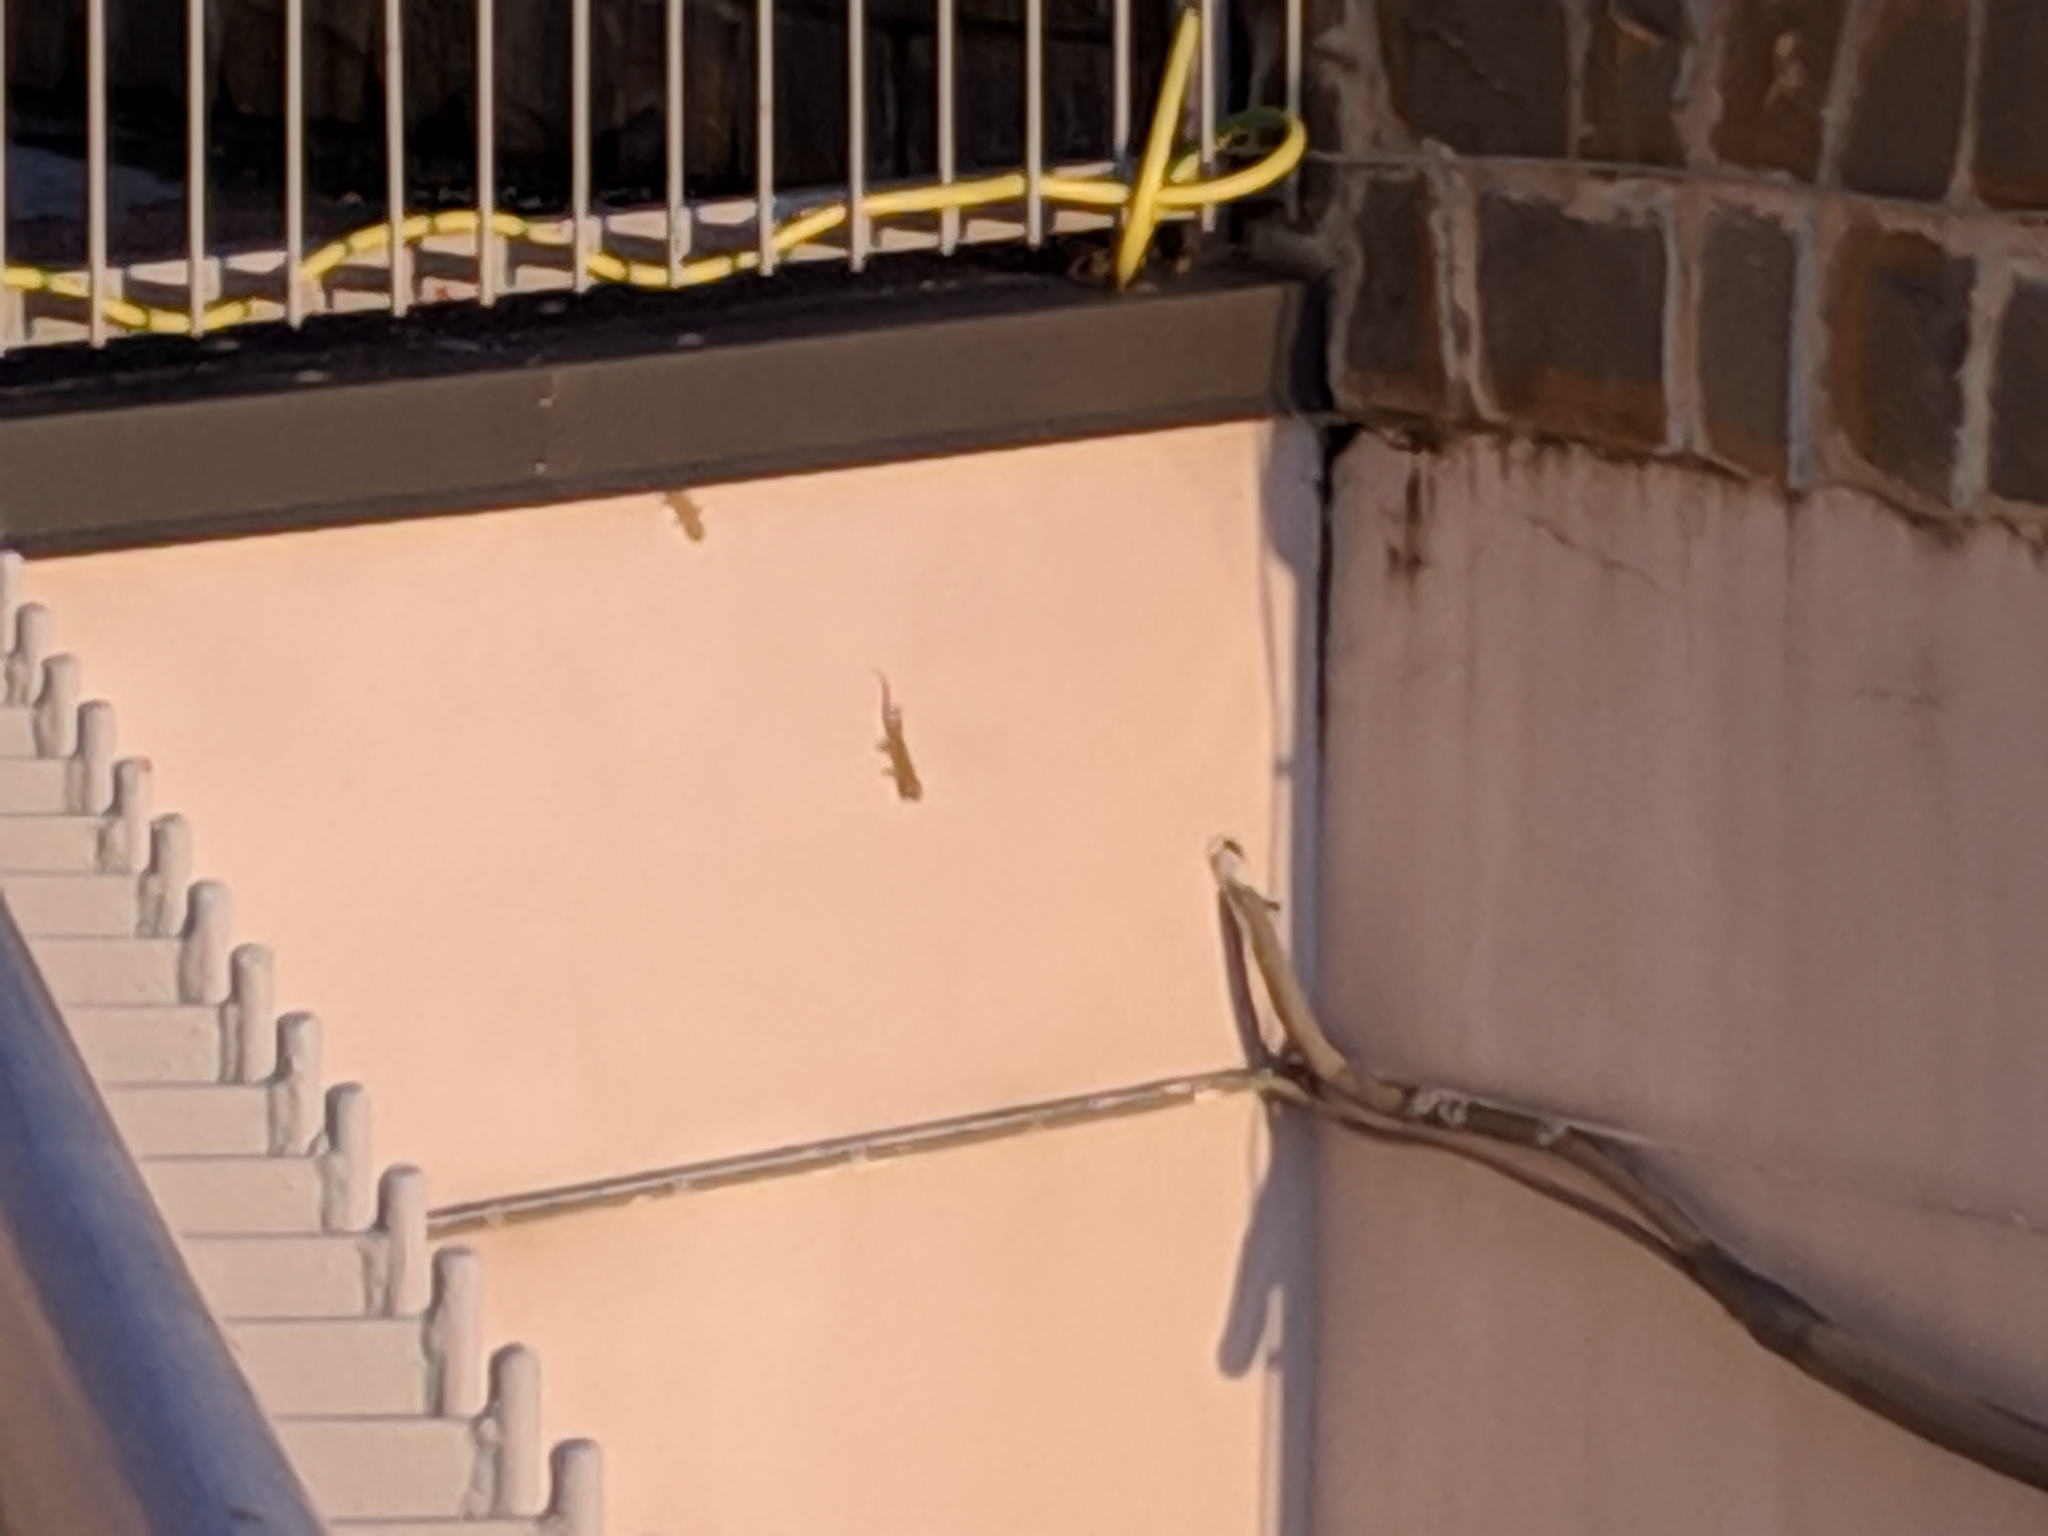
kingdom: Animalia
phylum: Chordata
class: Squamata
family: Phyllodactylidae
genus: Tarentola
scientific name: Tarentola mauritanica
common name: Moorish gecko
